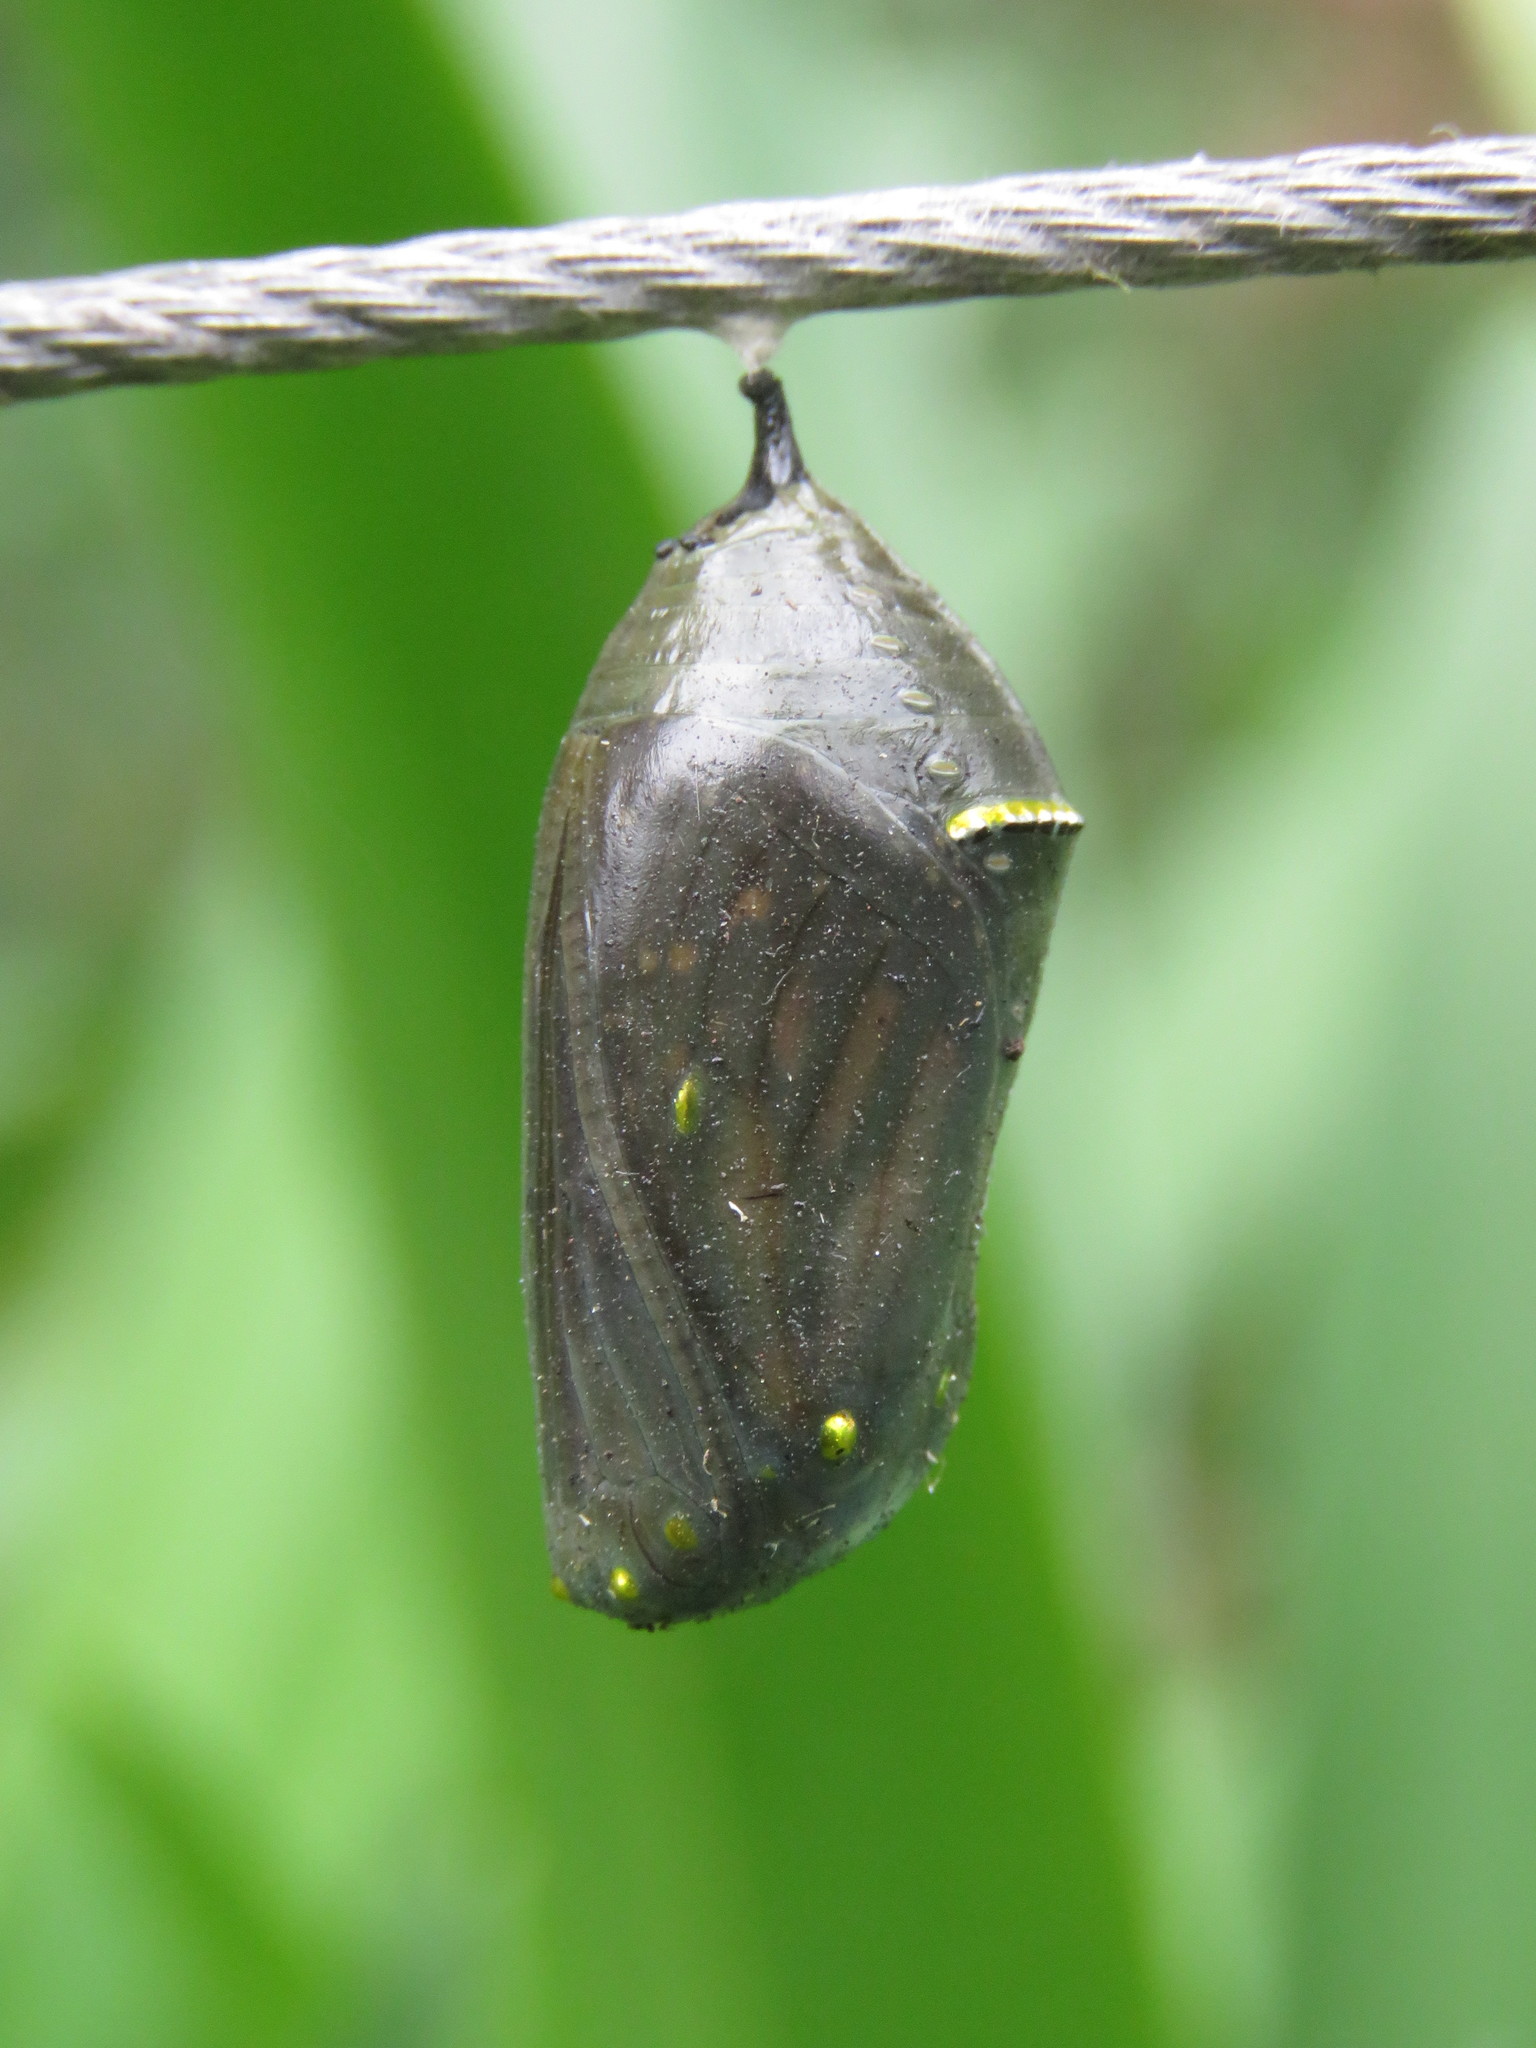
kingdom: Animalia
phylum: Arthropoda
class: Insecta
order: Lepidoptera
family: Nymphalidae
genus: Danaus
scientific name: Danaus plexippus
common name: Monarch
